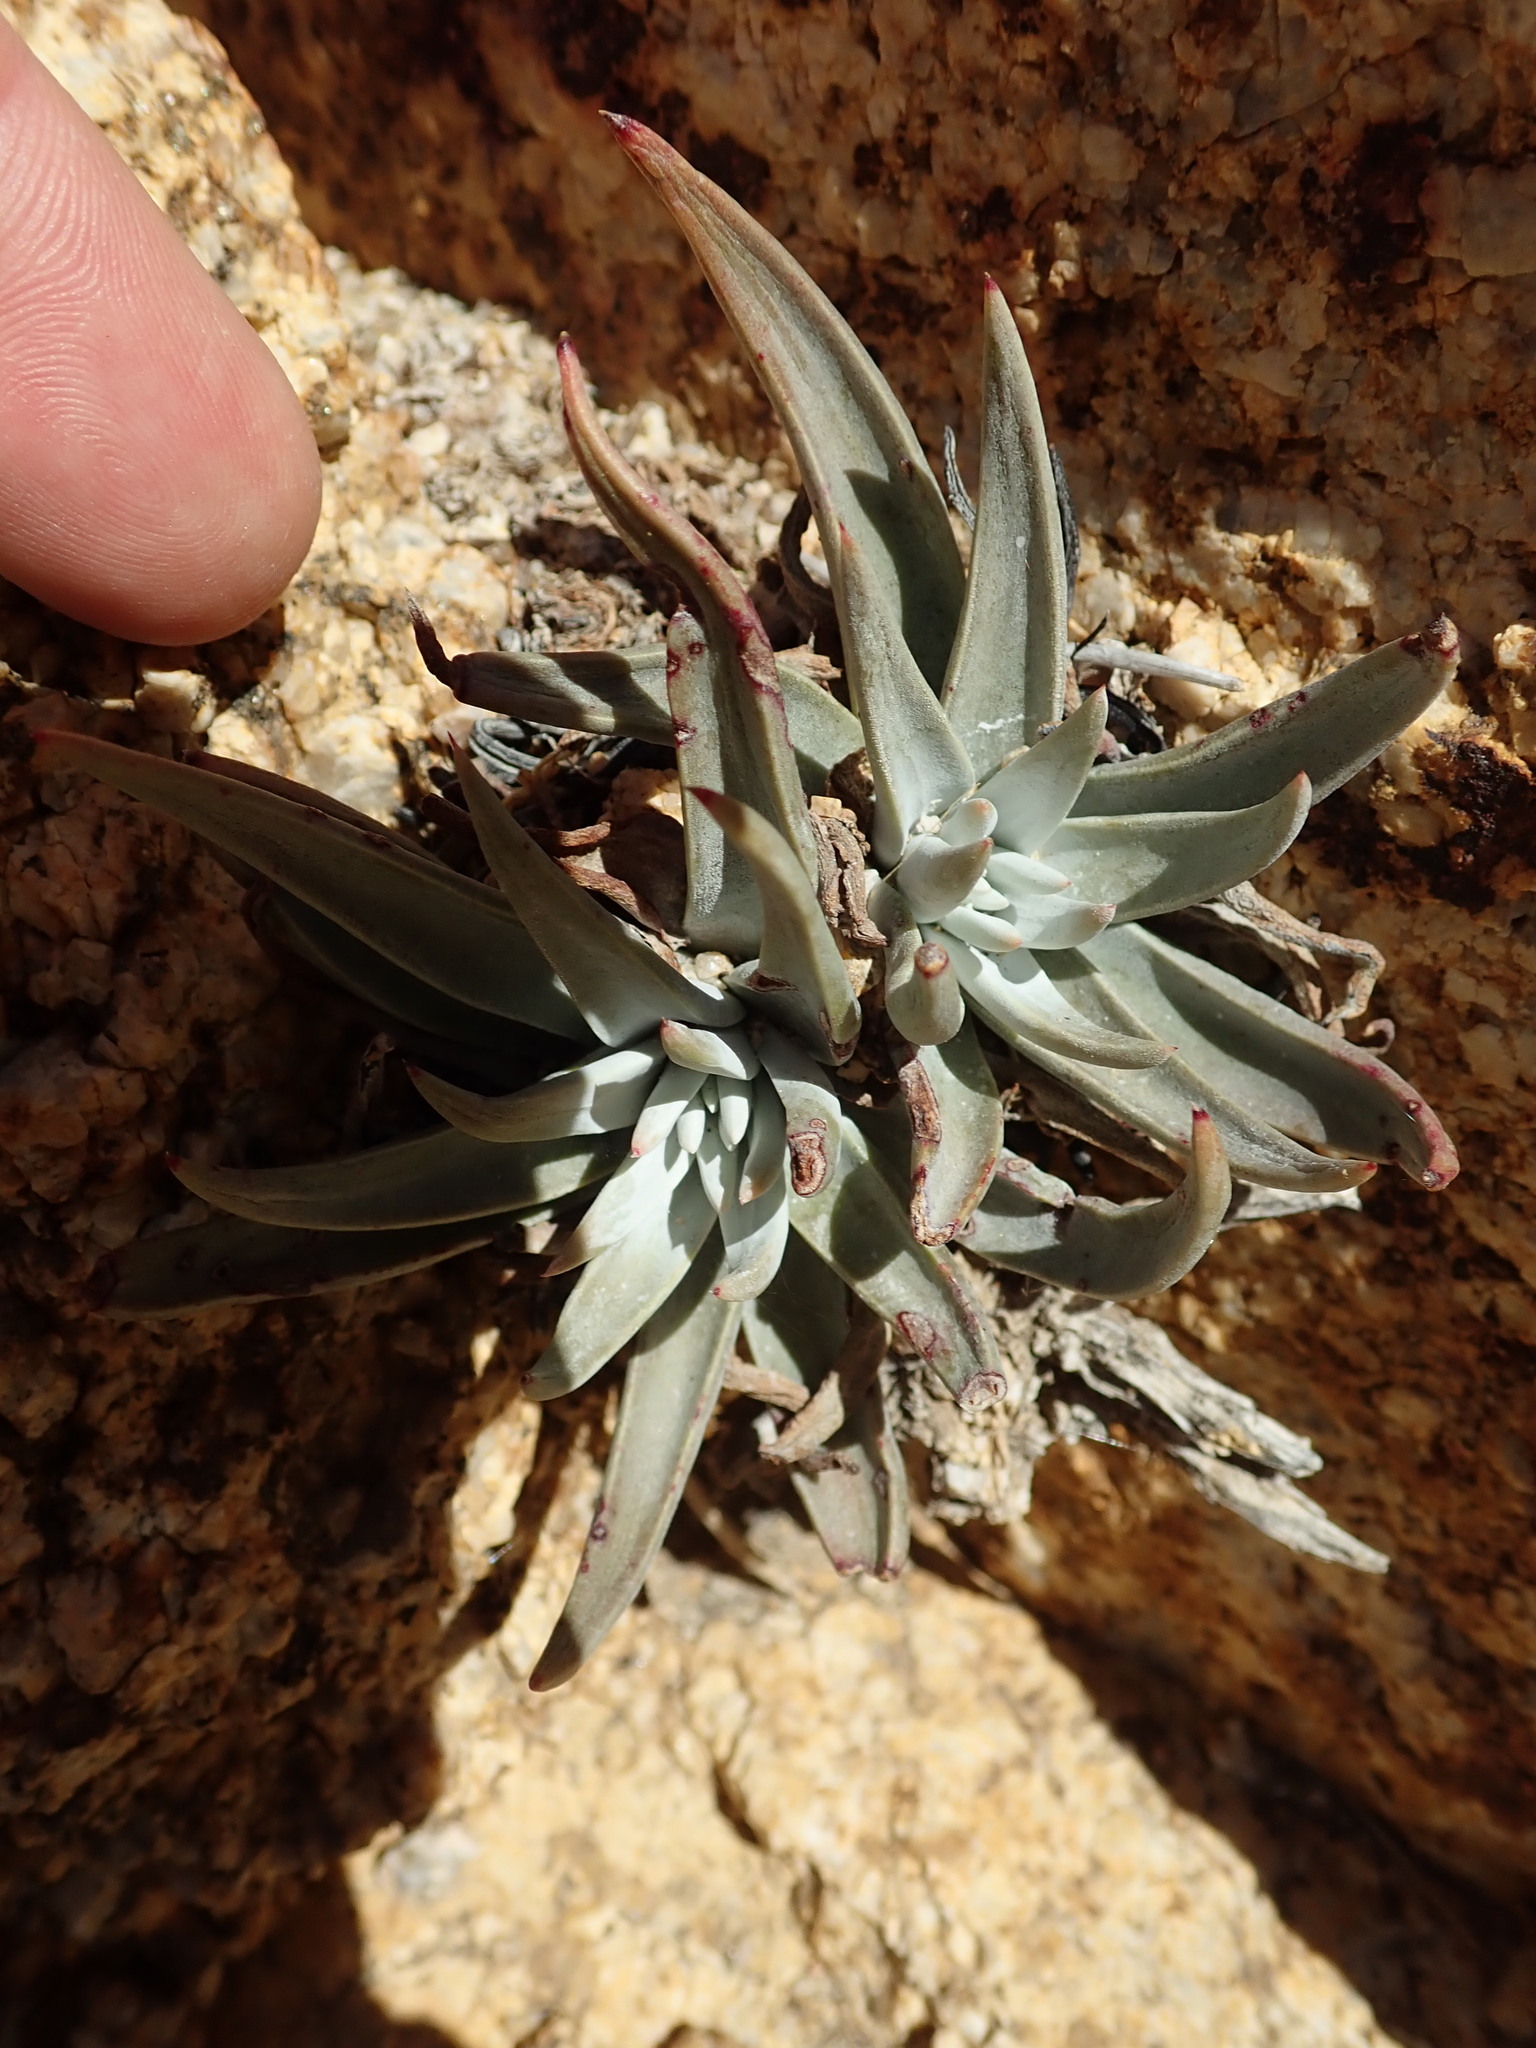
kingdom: Plantae
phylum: Tracheophyta
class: Magnoliopsida
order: Saxifragales
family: Crassulaceae
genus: Dudleya
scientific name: Dudleya saxosa
